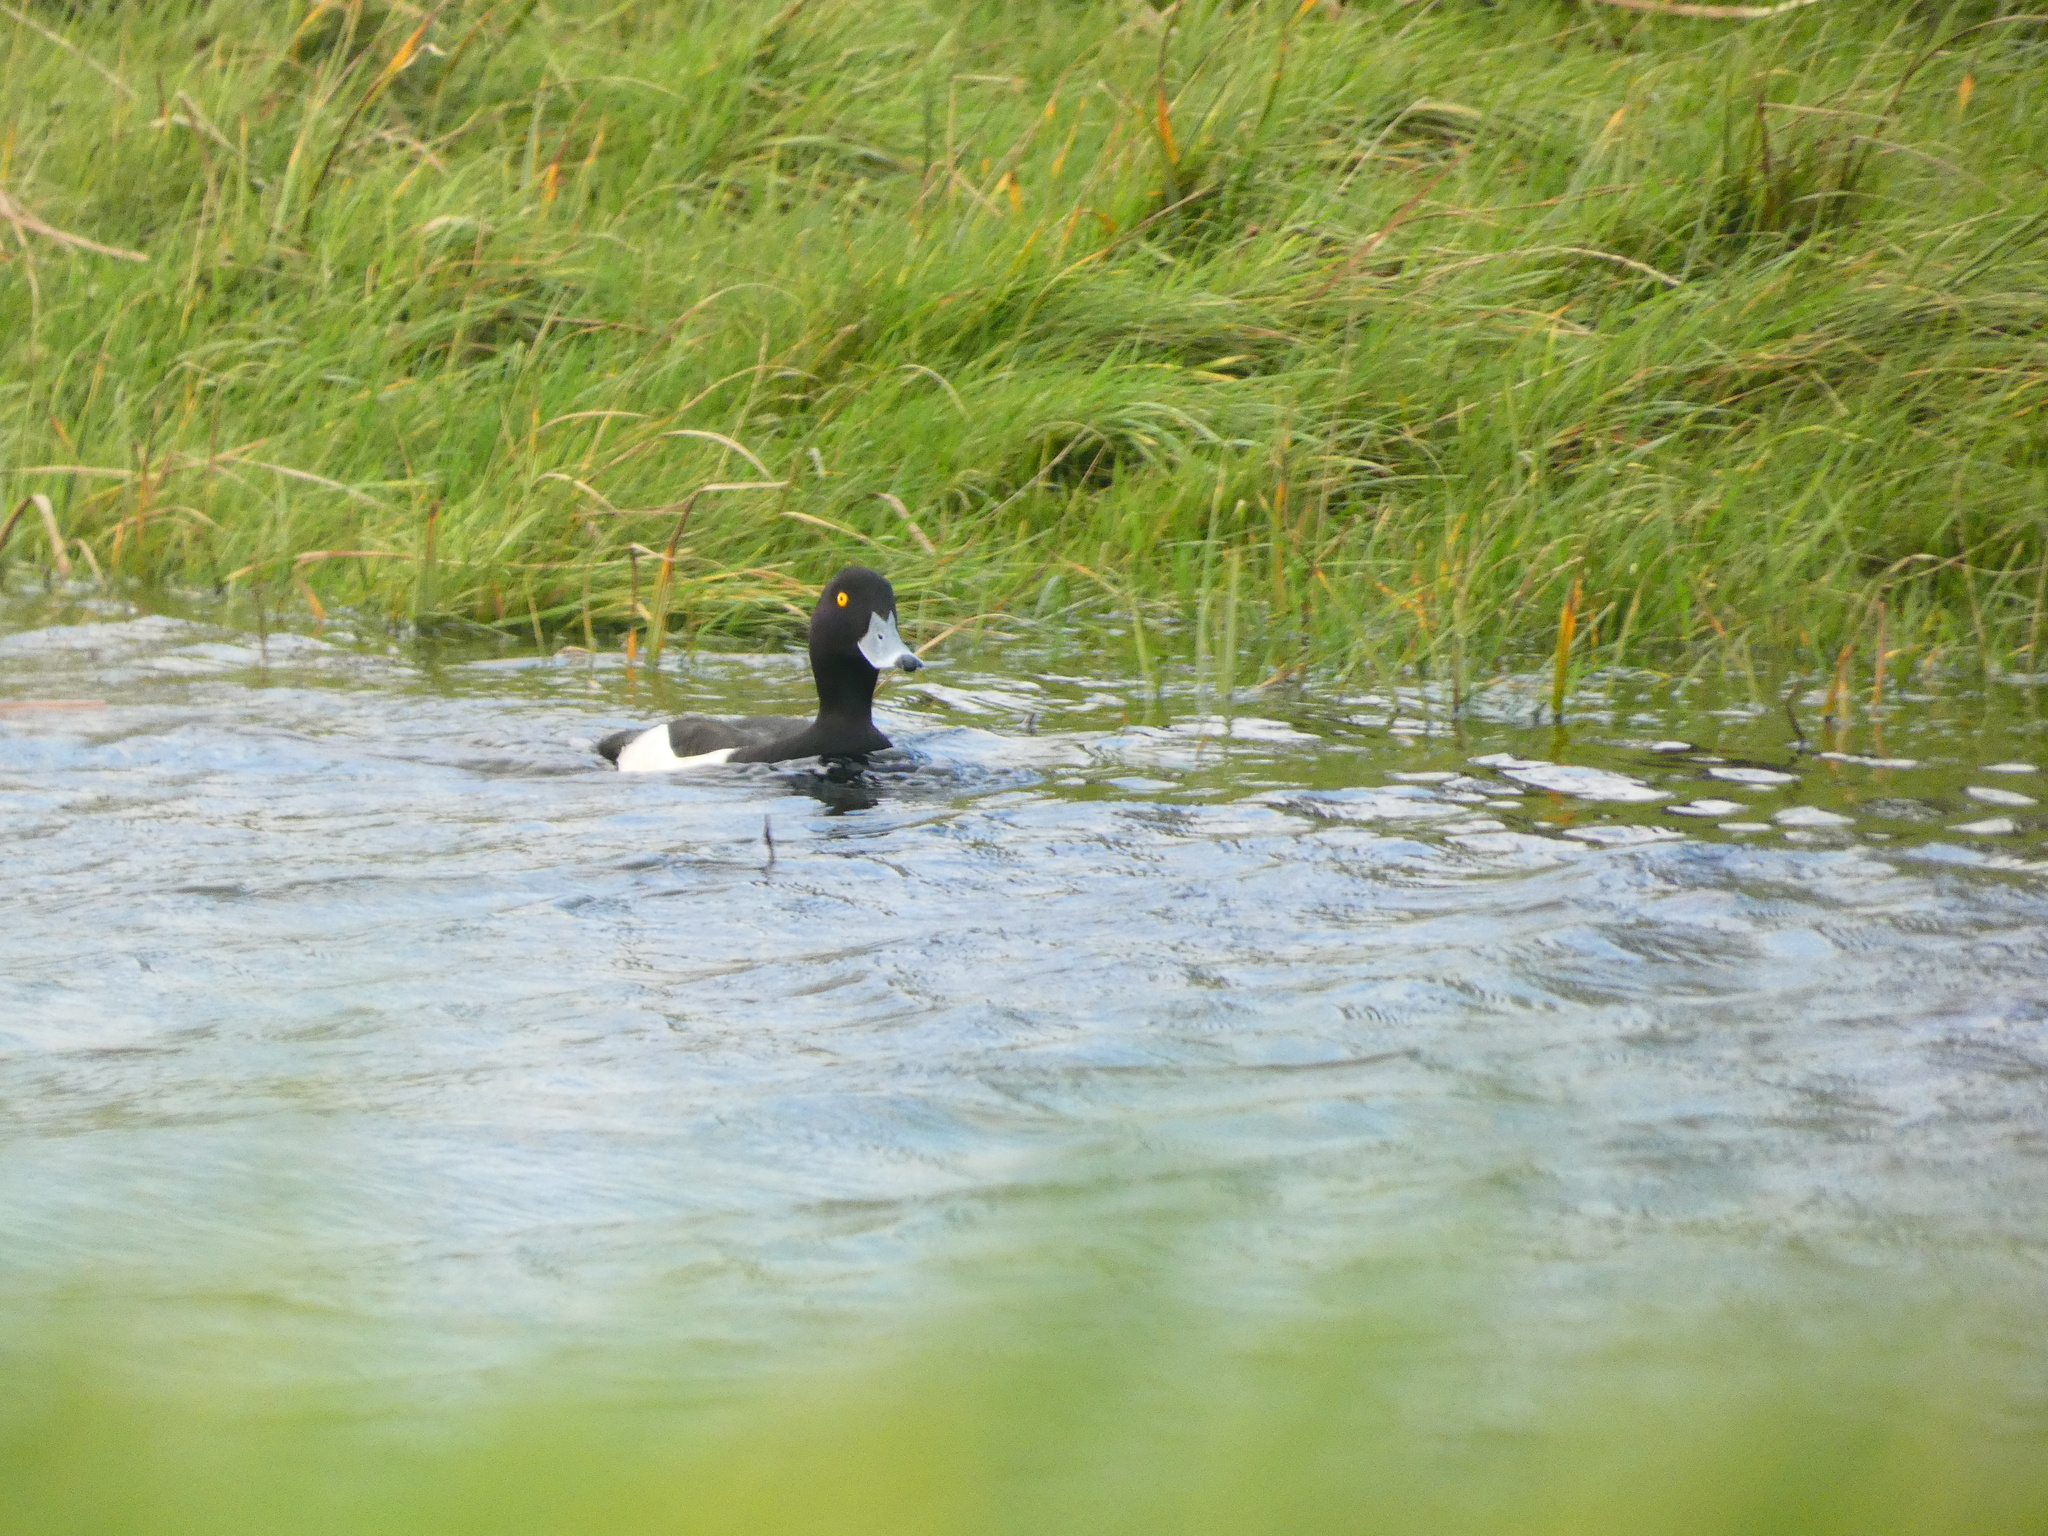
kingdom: Animalia
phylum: Chordata
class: Aves
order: Anseriformes
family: Anatidae
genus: Aythya
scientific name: Aythya fuligula
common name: Tufted duck
